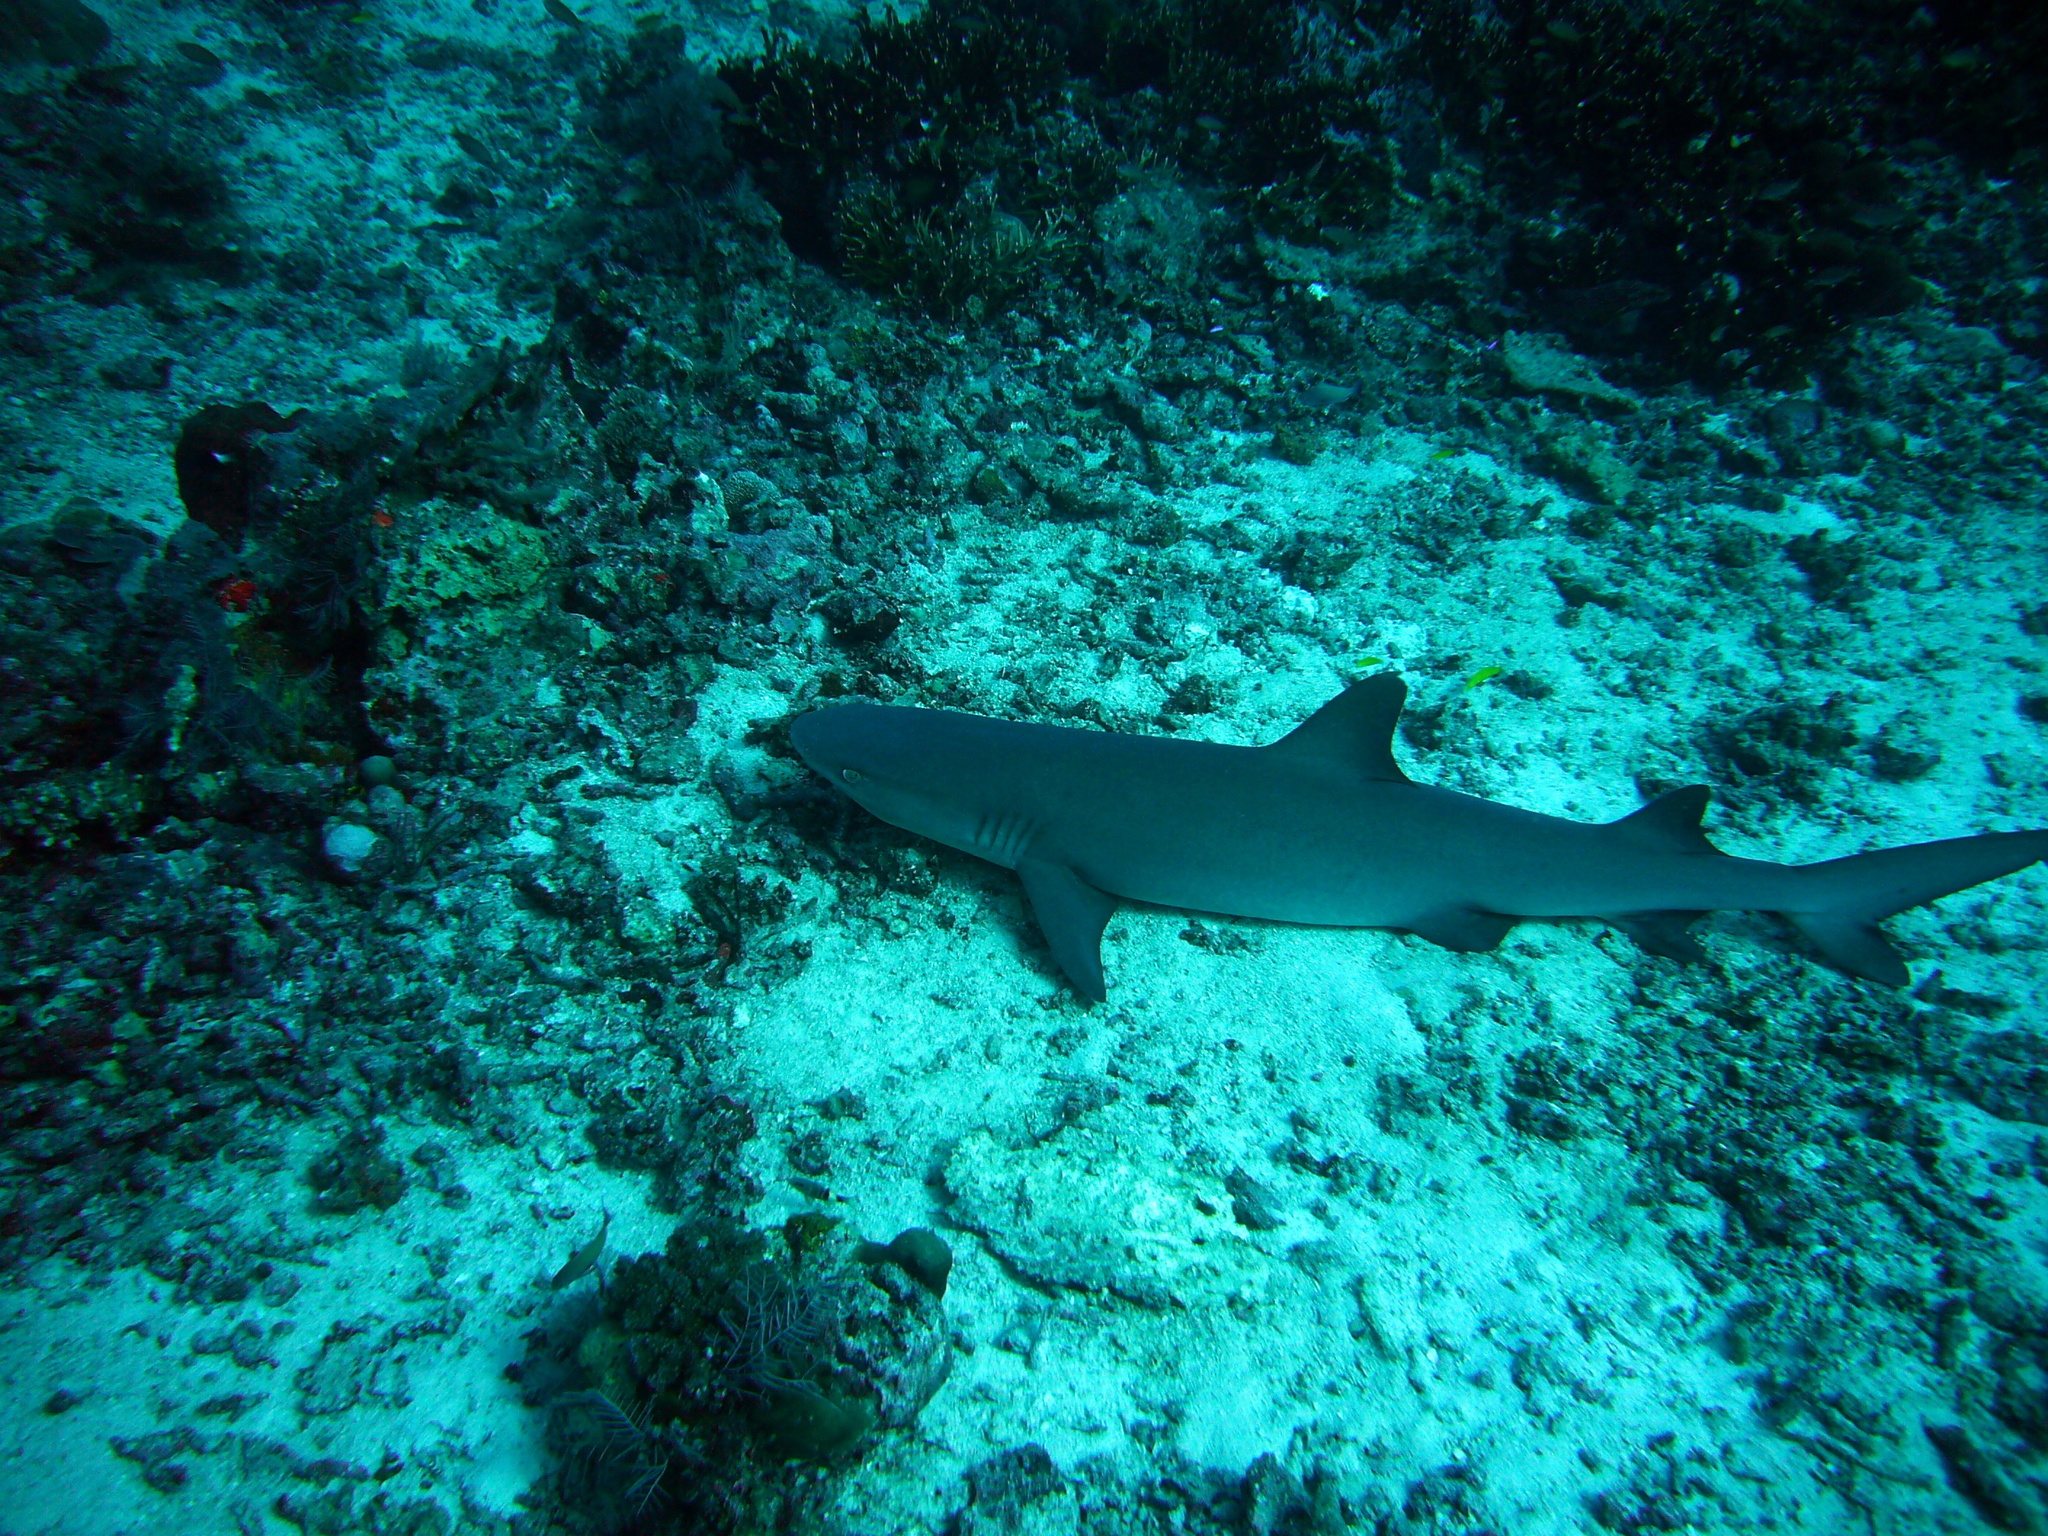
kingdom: Animalia
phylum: Chordata
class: Elasmobranchii
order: Carcharhiniformes
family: Carcharhinidae
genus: Triaenodon
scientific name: Triaenodon obesus
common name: Whitetip reef shark
